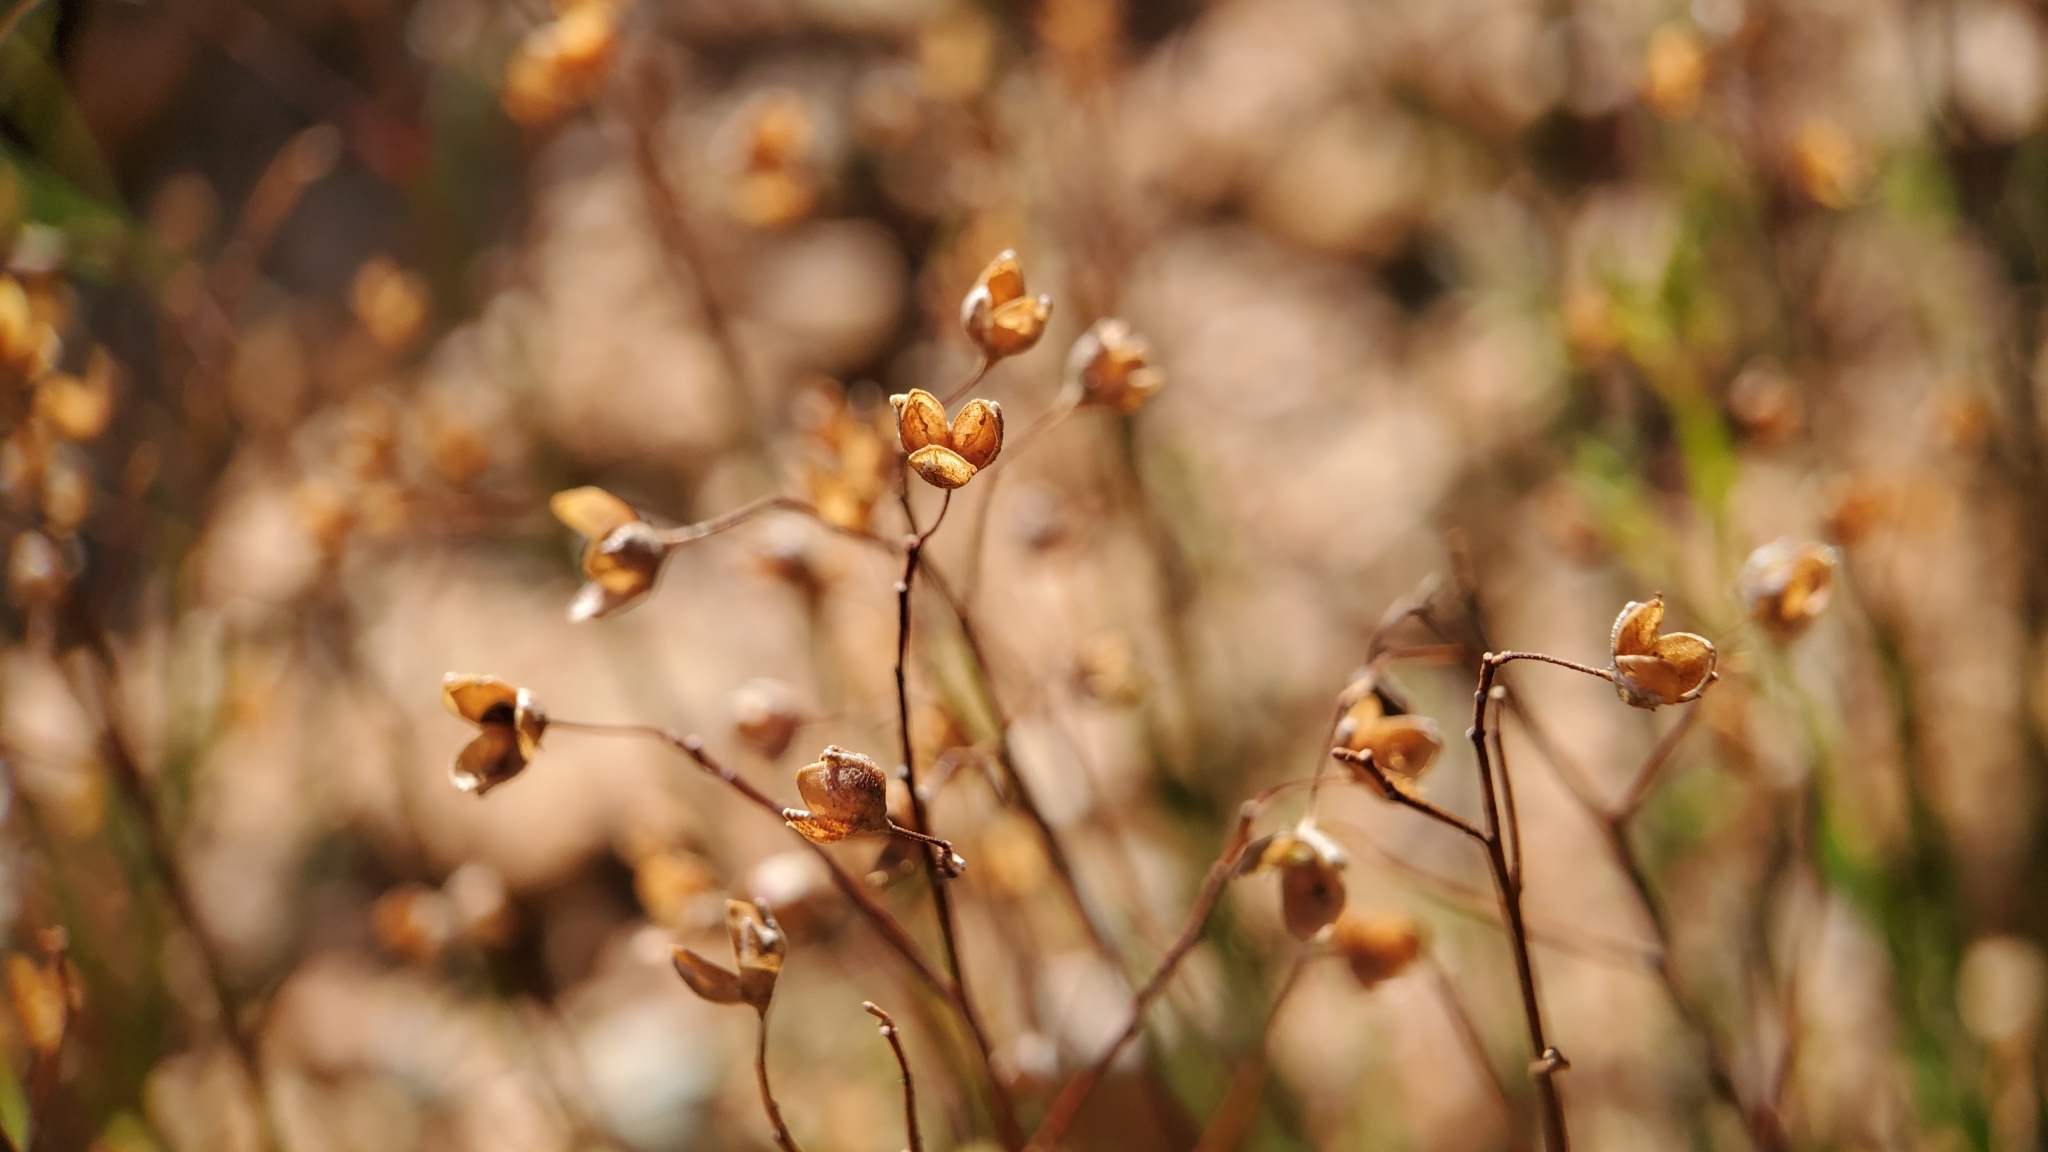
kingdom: Plantae
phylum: Tracheophyta
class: Magnoliopsida
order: Malvales
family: Cistaceae
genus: Crocanthemum
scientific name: Crocanthemum scoparium
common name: Broom-rose
